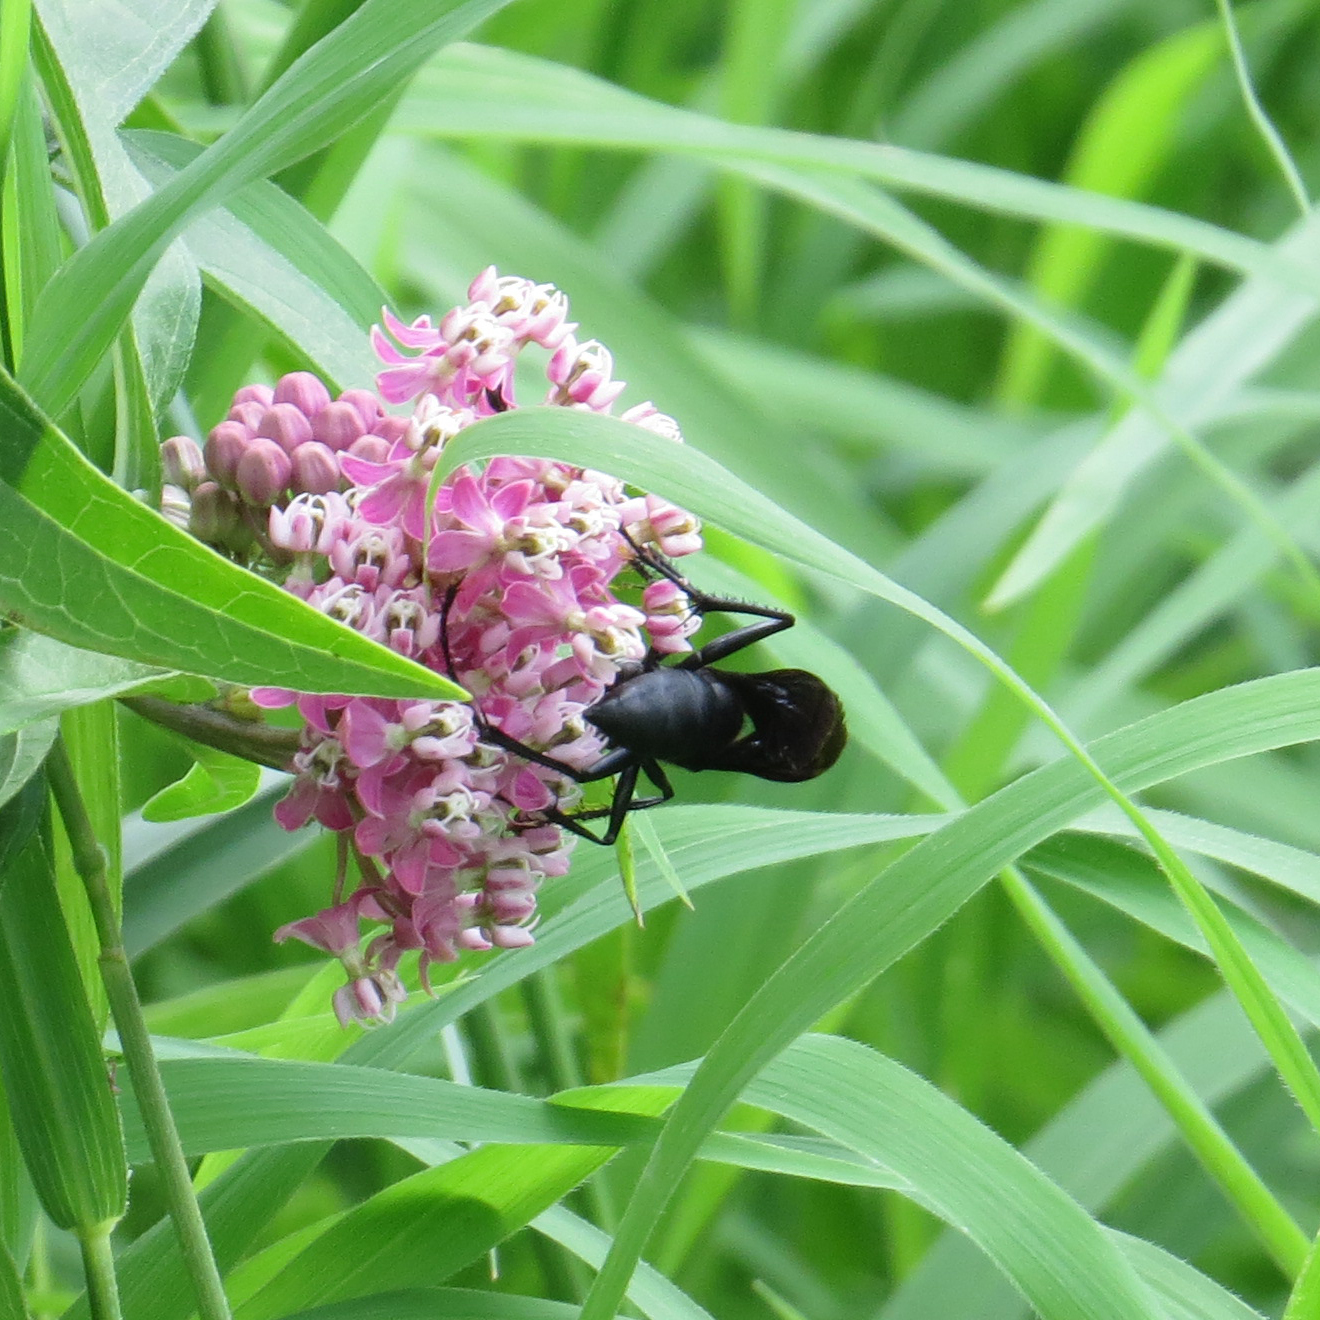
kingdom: Animalia
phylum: Arthropoda
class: Insecta
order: Hymenoptera
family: Sphecidae
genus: Sphex
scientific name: Sphex pensylvanicus
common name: Great black digger wasp
